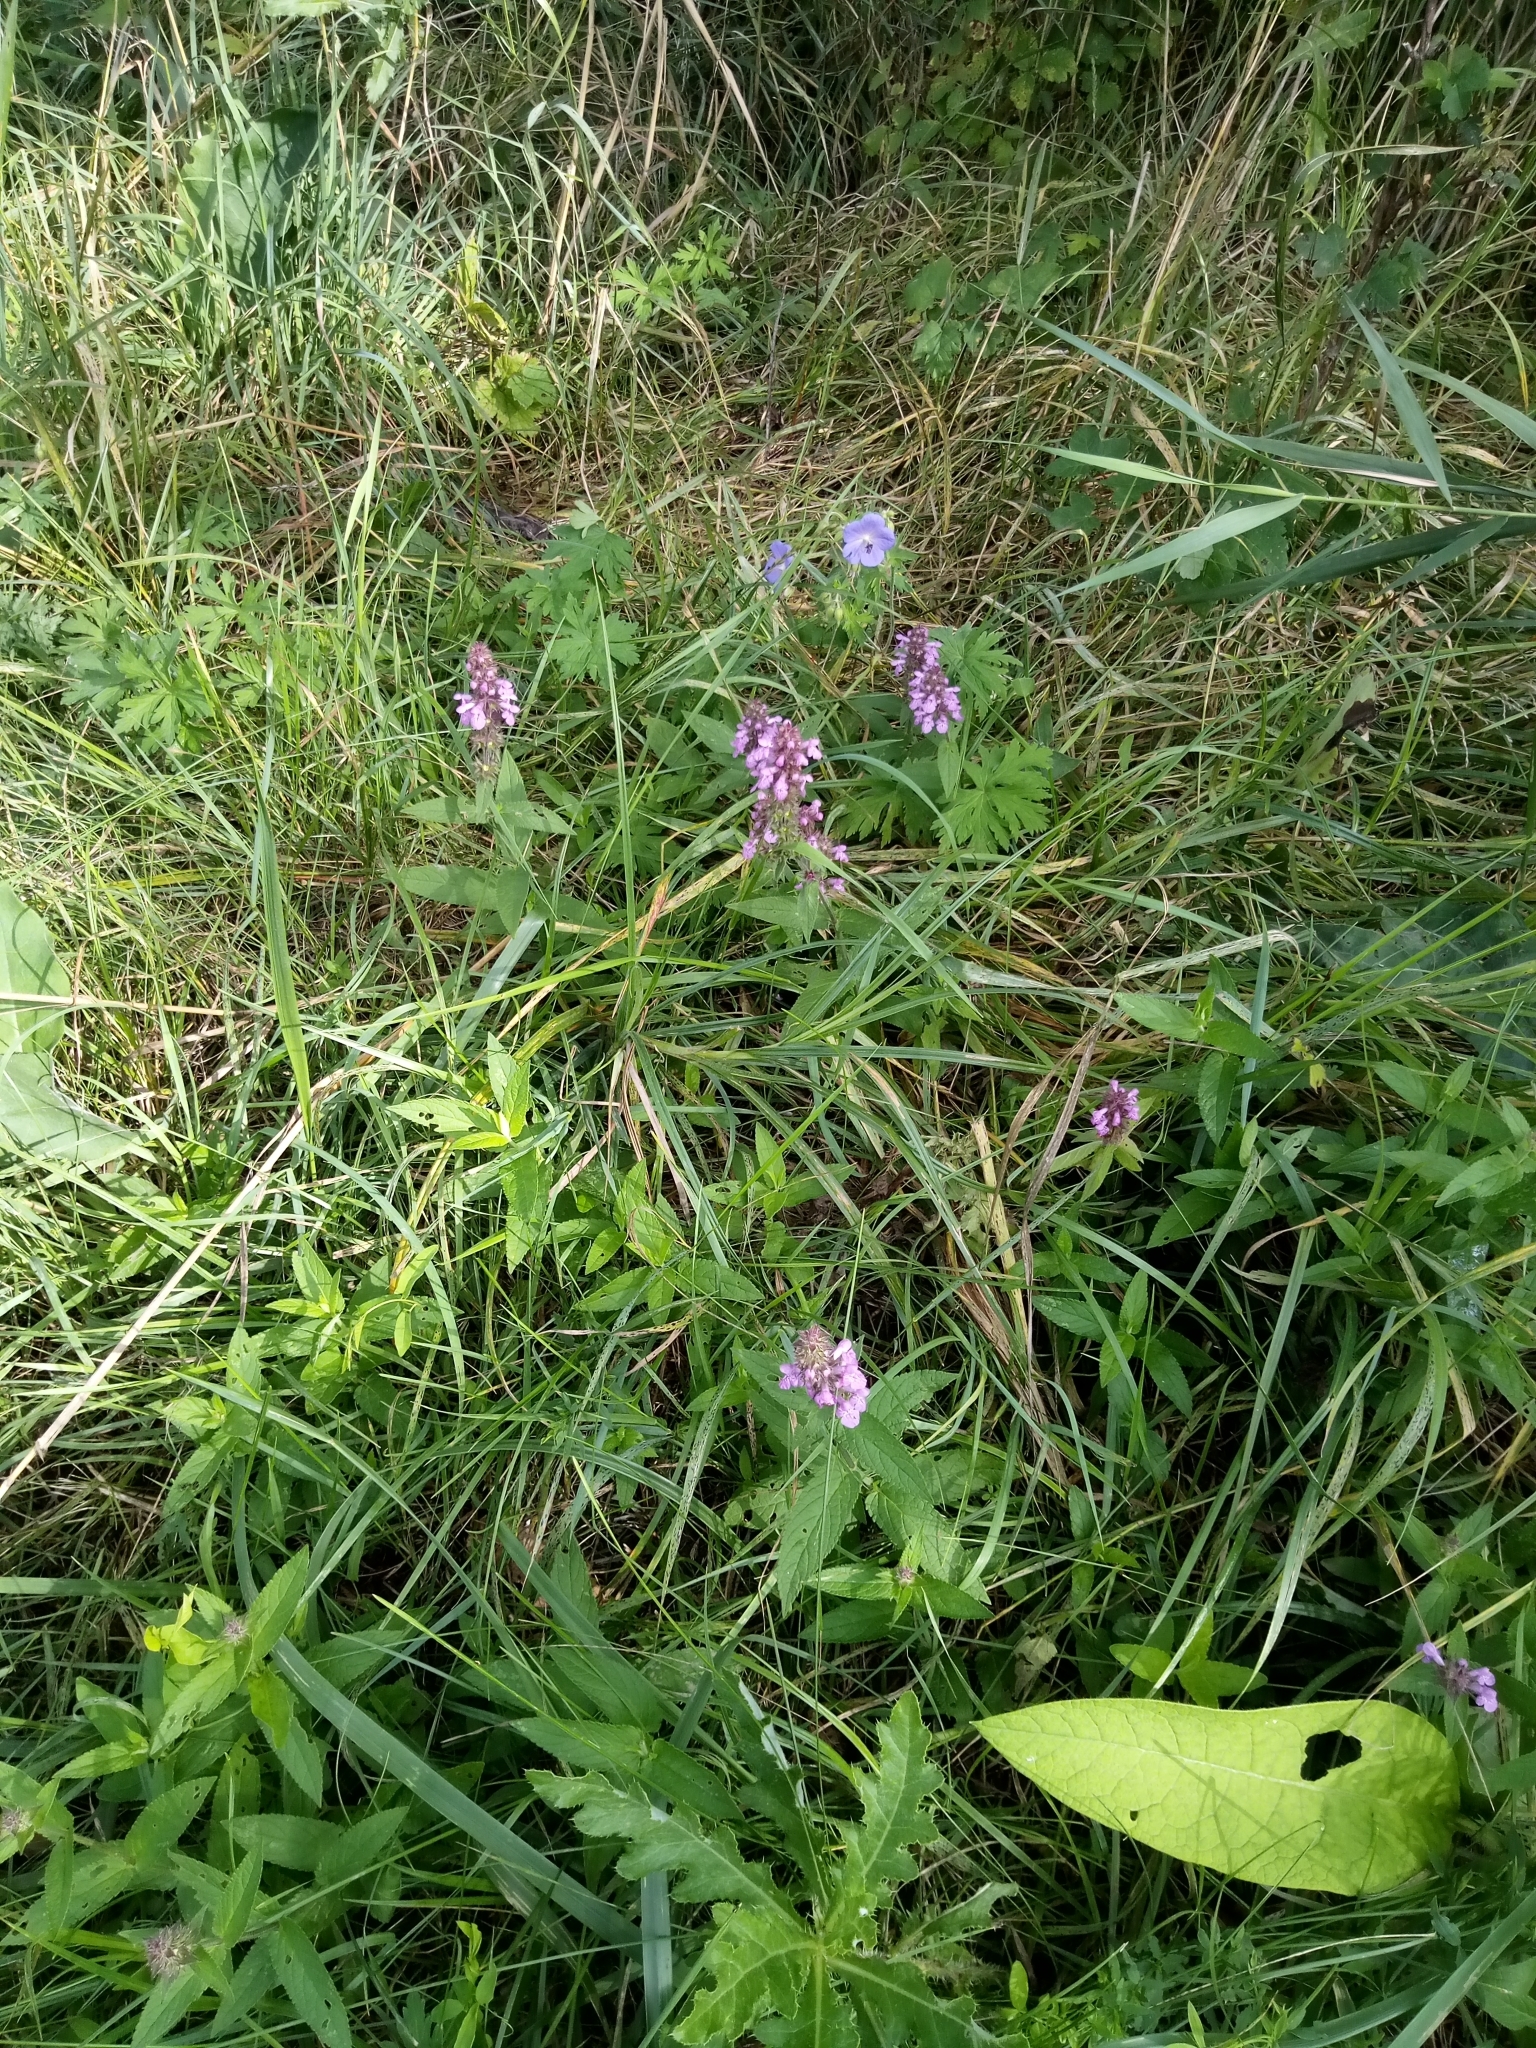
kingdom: Plantae
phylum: Tracheophyta
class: Magnoliopsida
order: Lamiales
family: Lamiaceae
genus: Stachys
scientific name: Stachys palustris
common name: Marsh woundwort
